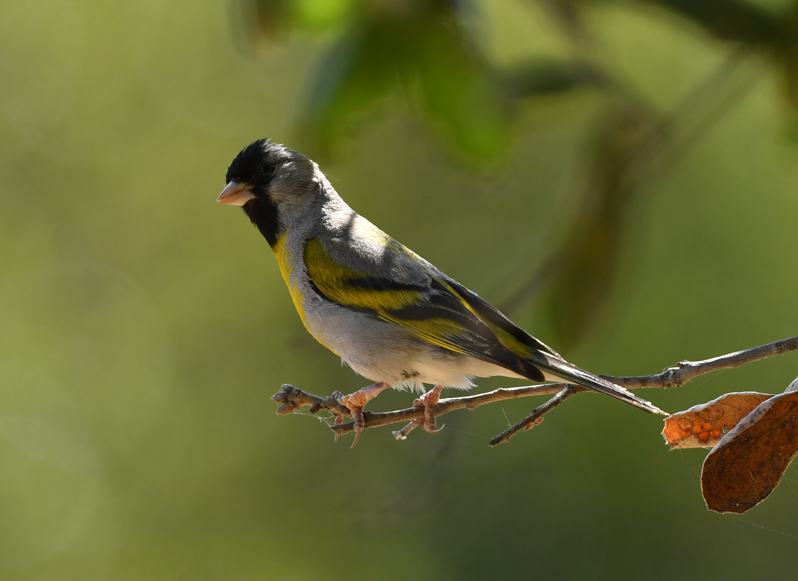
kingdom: Animalia
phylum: Chordata
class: Aves
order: Passeriformes
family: Fringillidae
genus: Spinus
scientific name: Spinus lawrencei
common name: Lawrence's goldfinch
